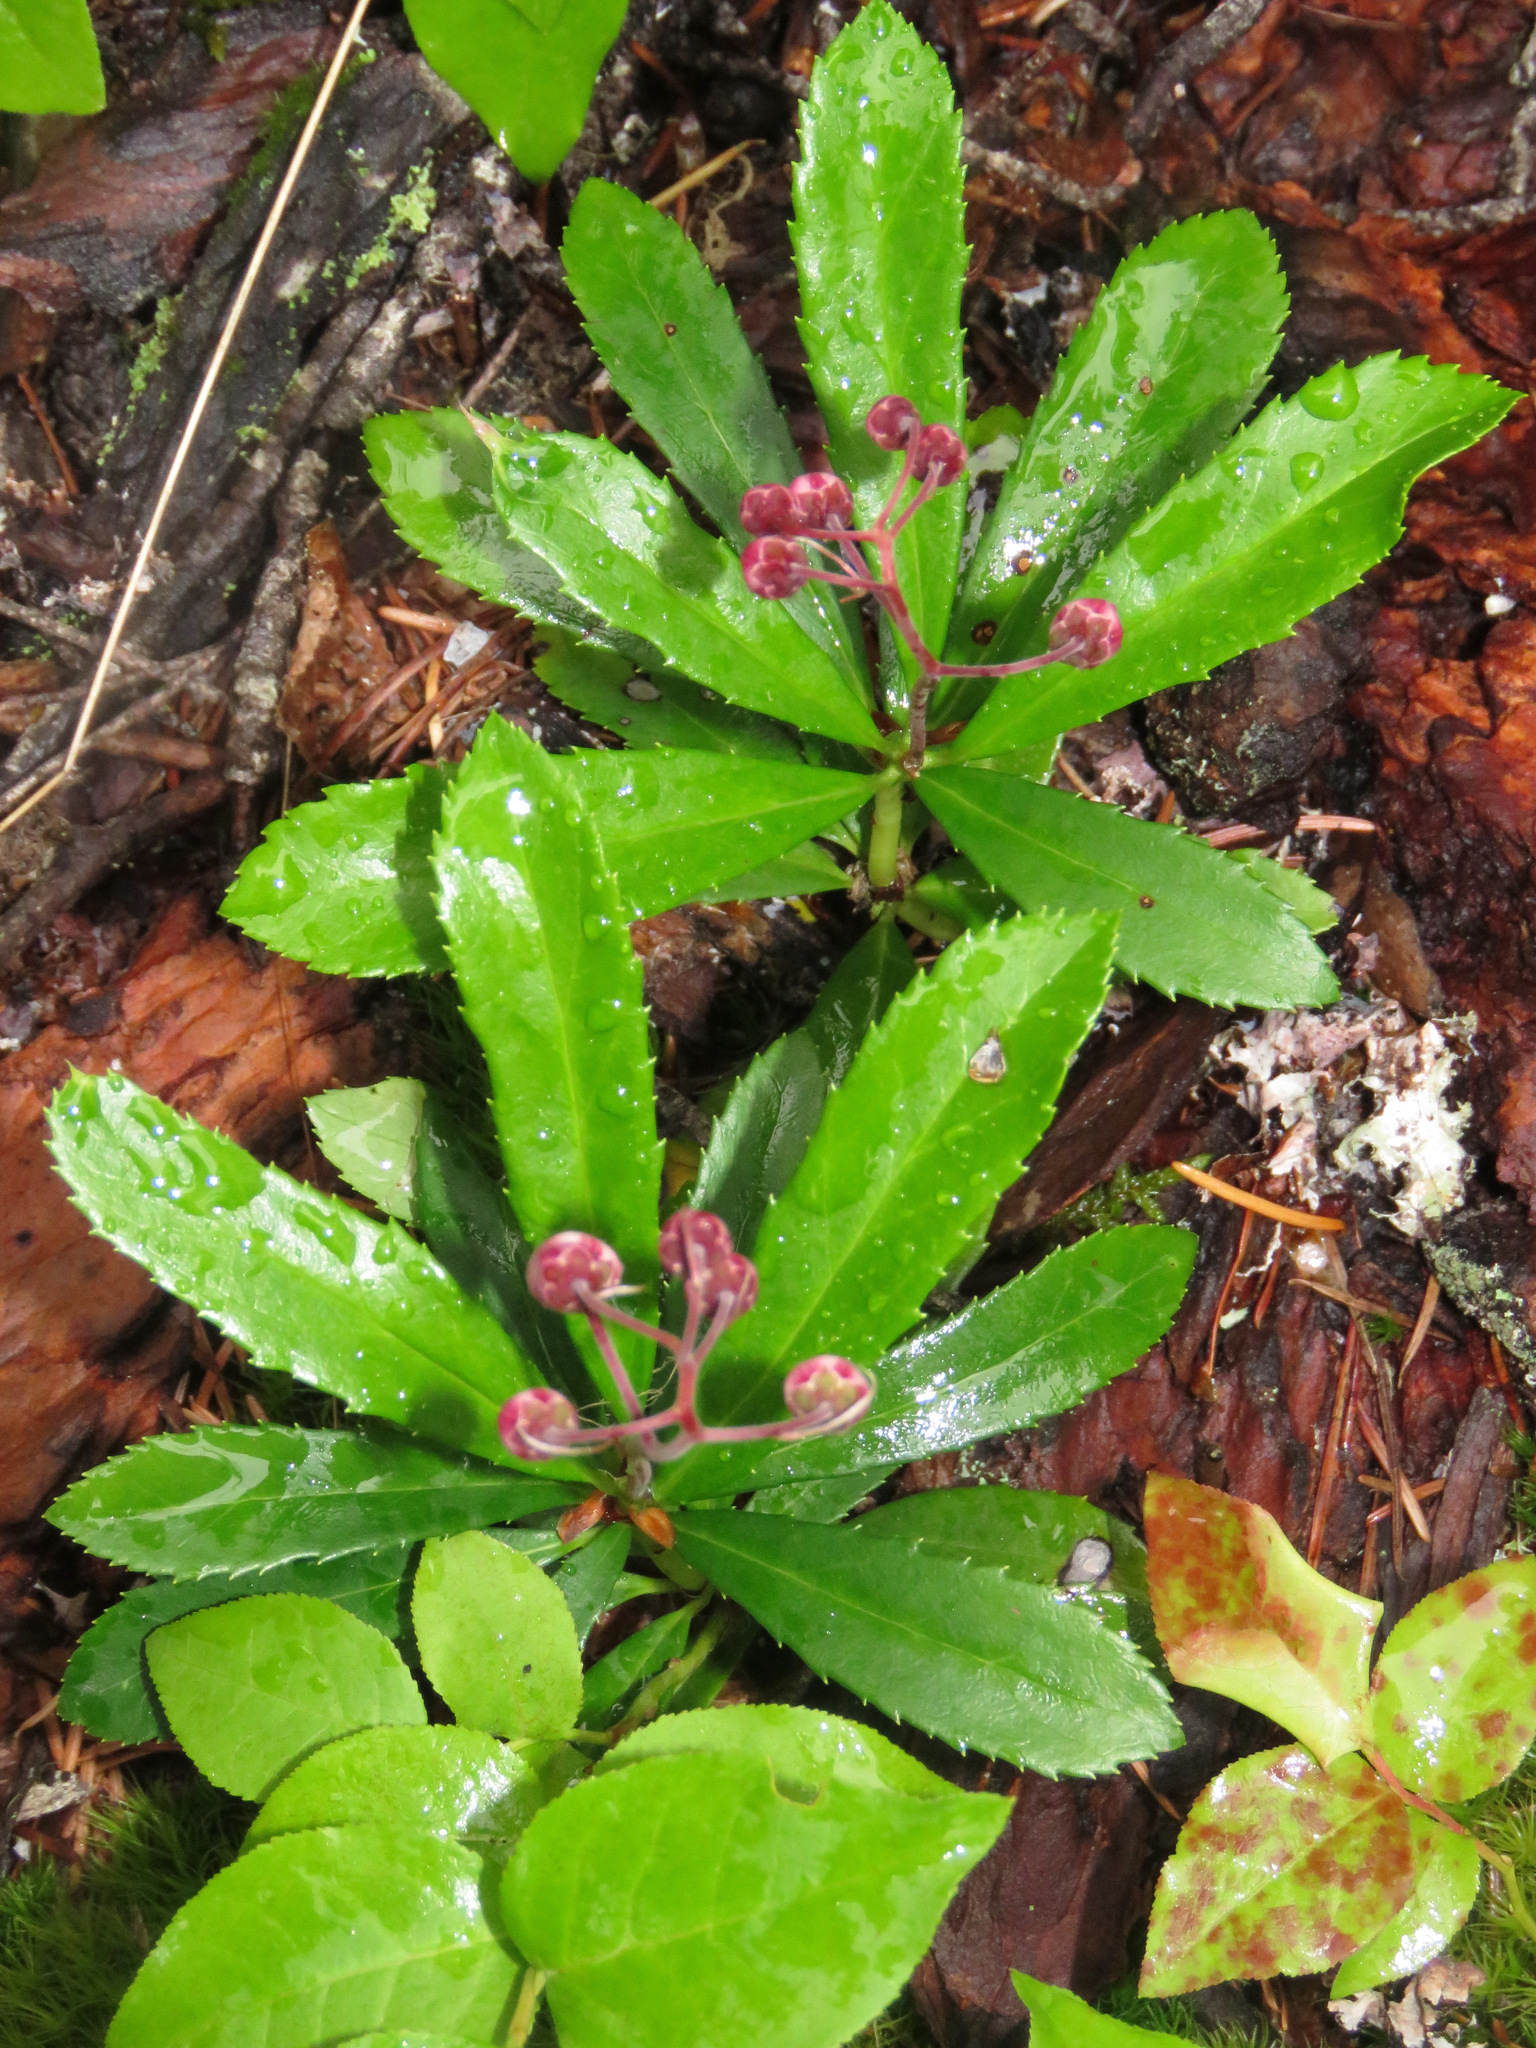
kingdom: Plantae
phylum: Tracheophyta
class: Magnoliopsida
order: Ericales
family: Ericaceae
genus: Chimaphila
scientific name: Chimaphila umbellata
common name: Pipsissewa
